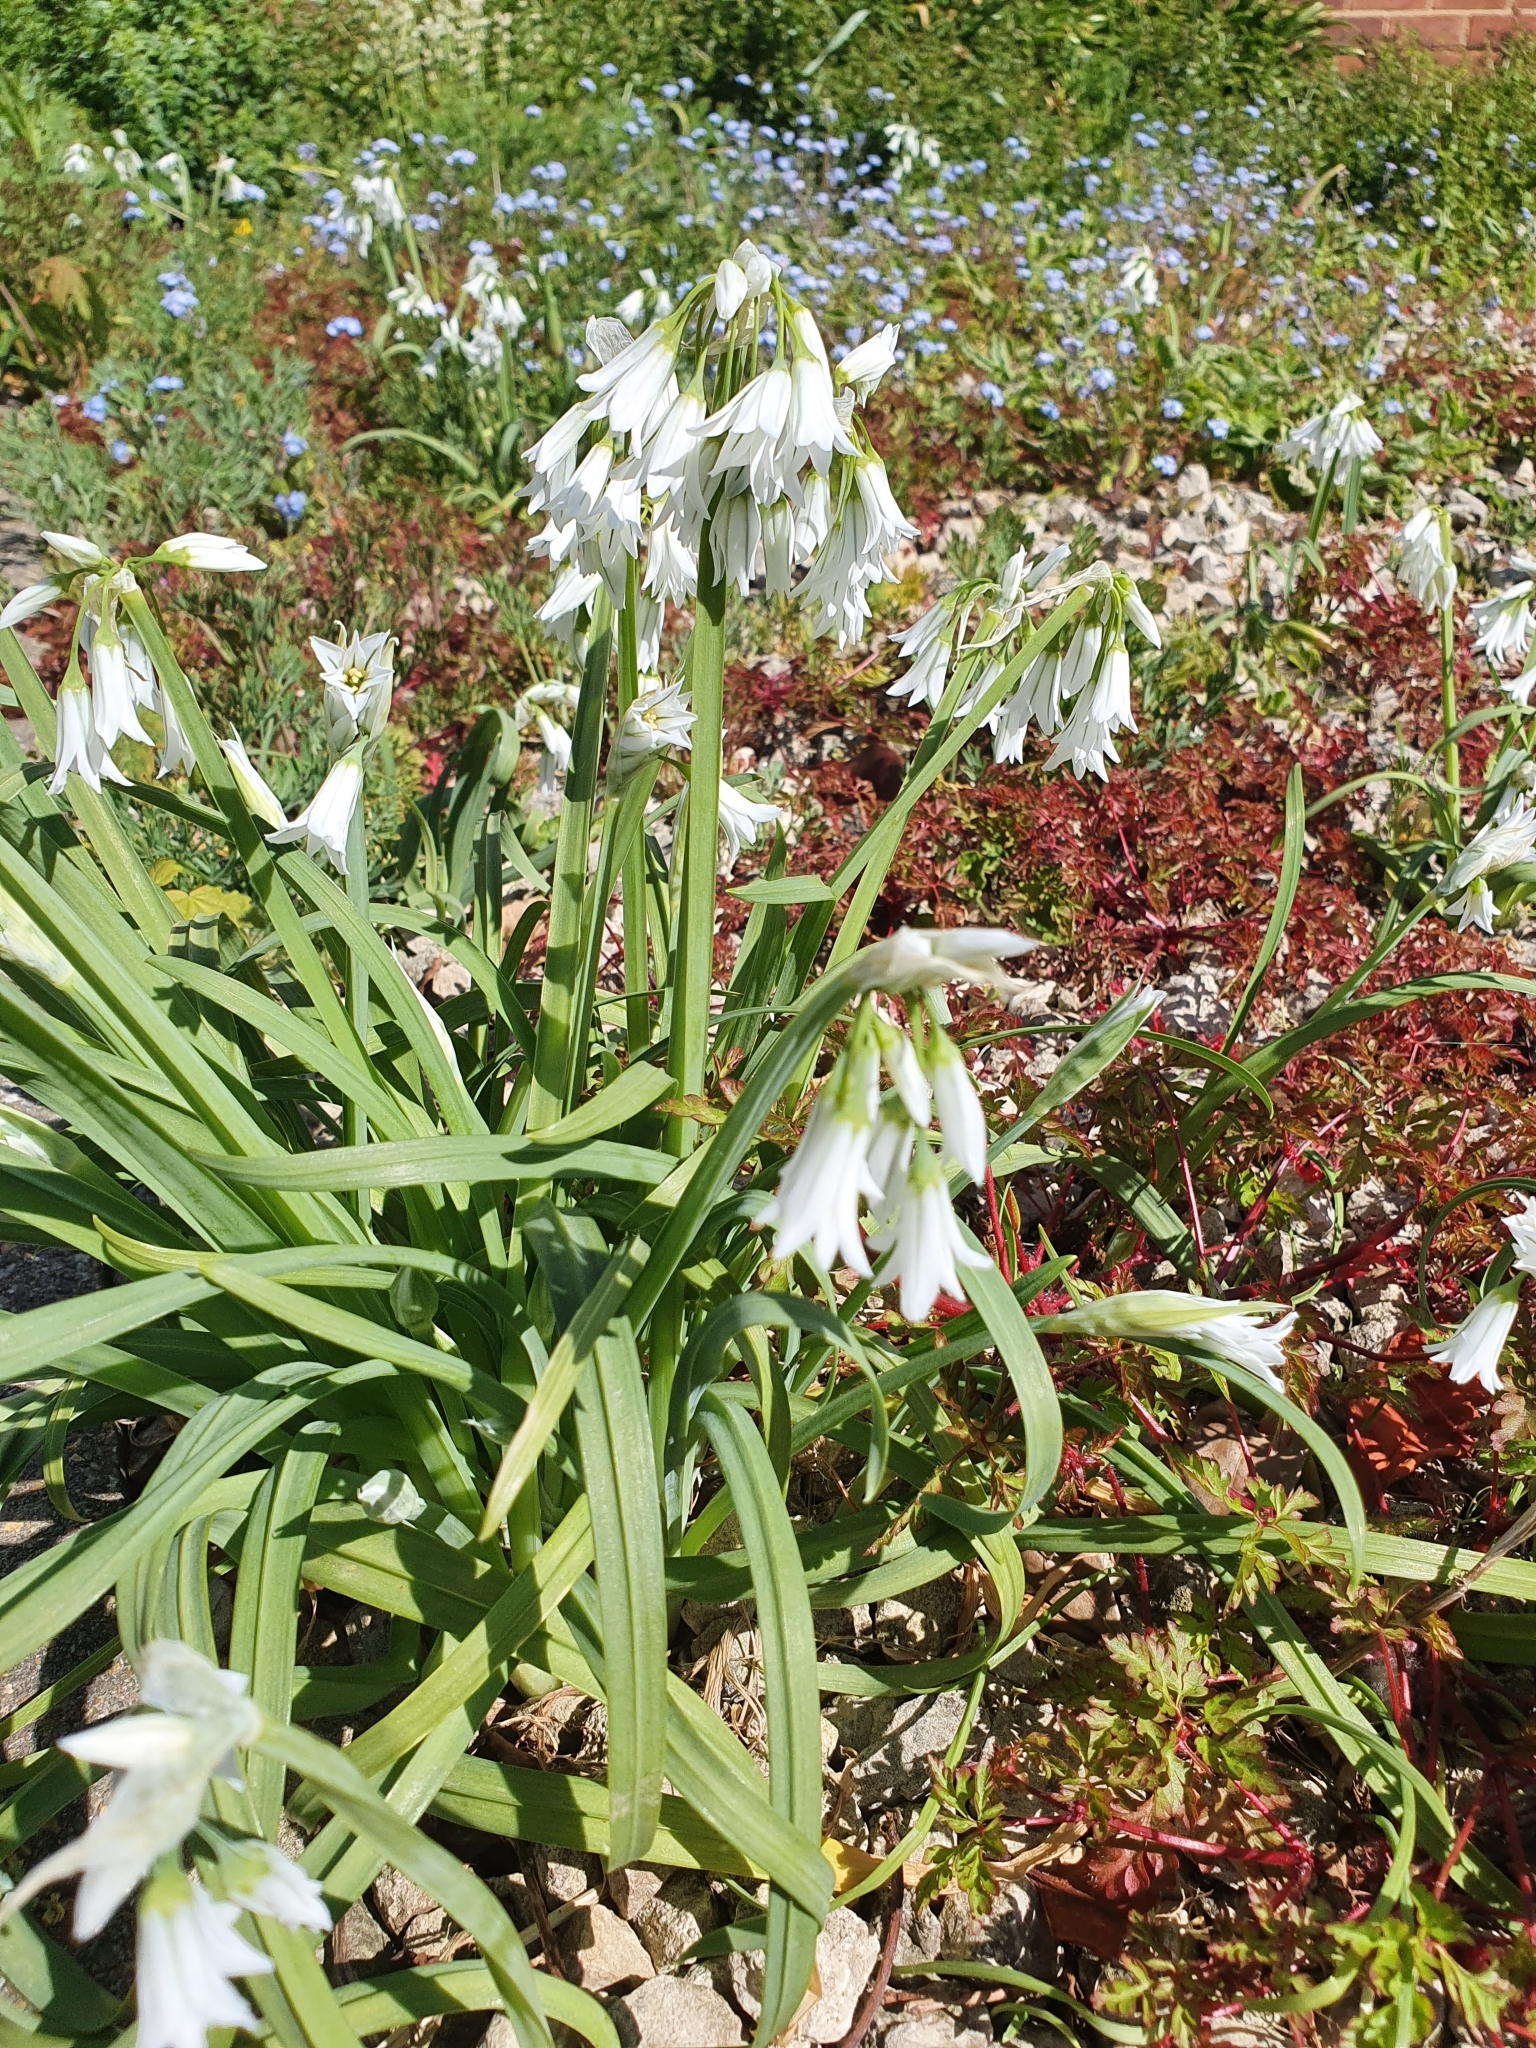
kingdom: Plantae
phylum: Tracheophyta
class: Liliopsida
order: Asparagales
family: Amaryllidaceae
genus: Allium
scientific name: Allium triquetrum
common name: Three-cornered garlic
